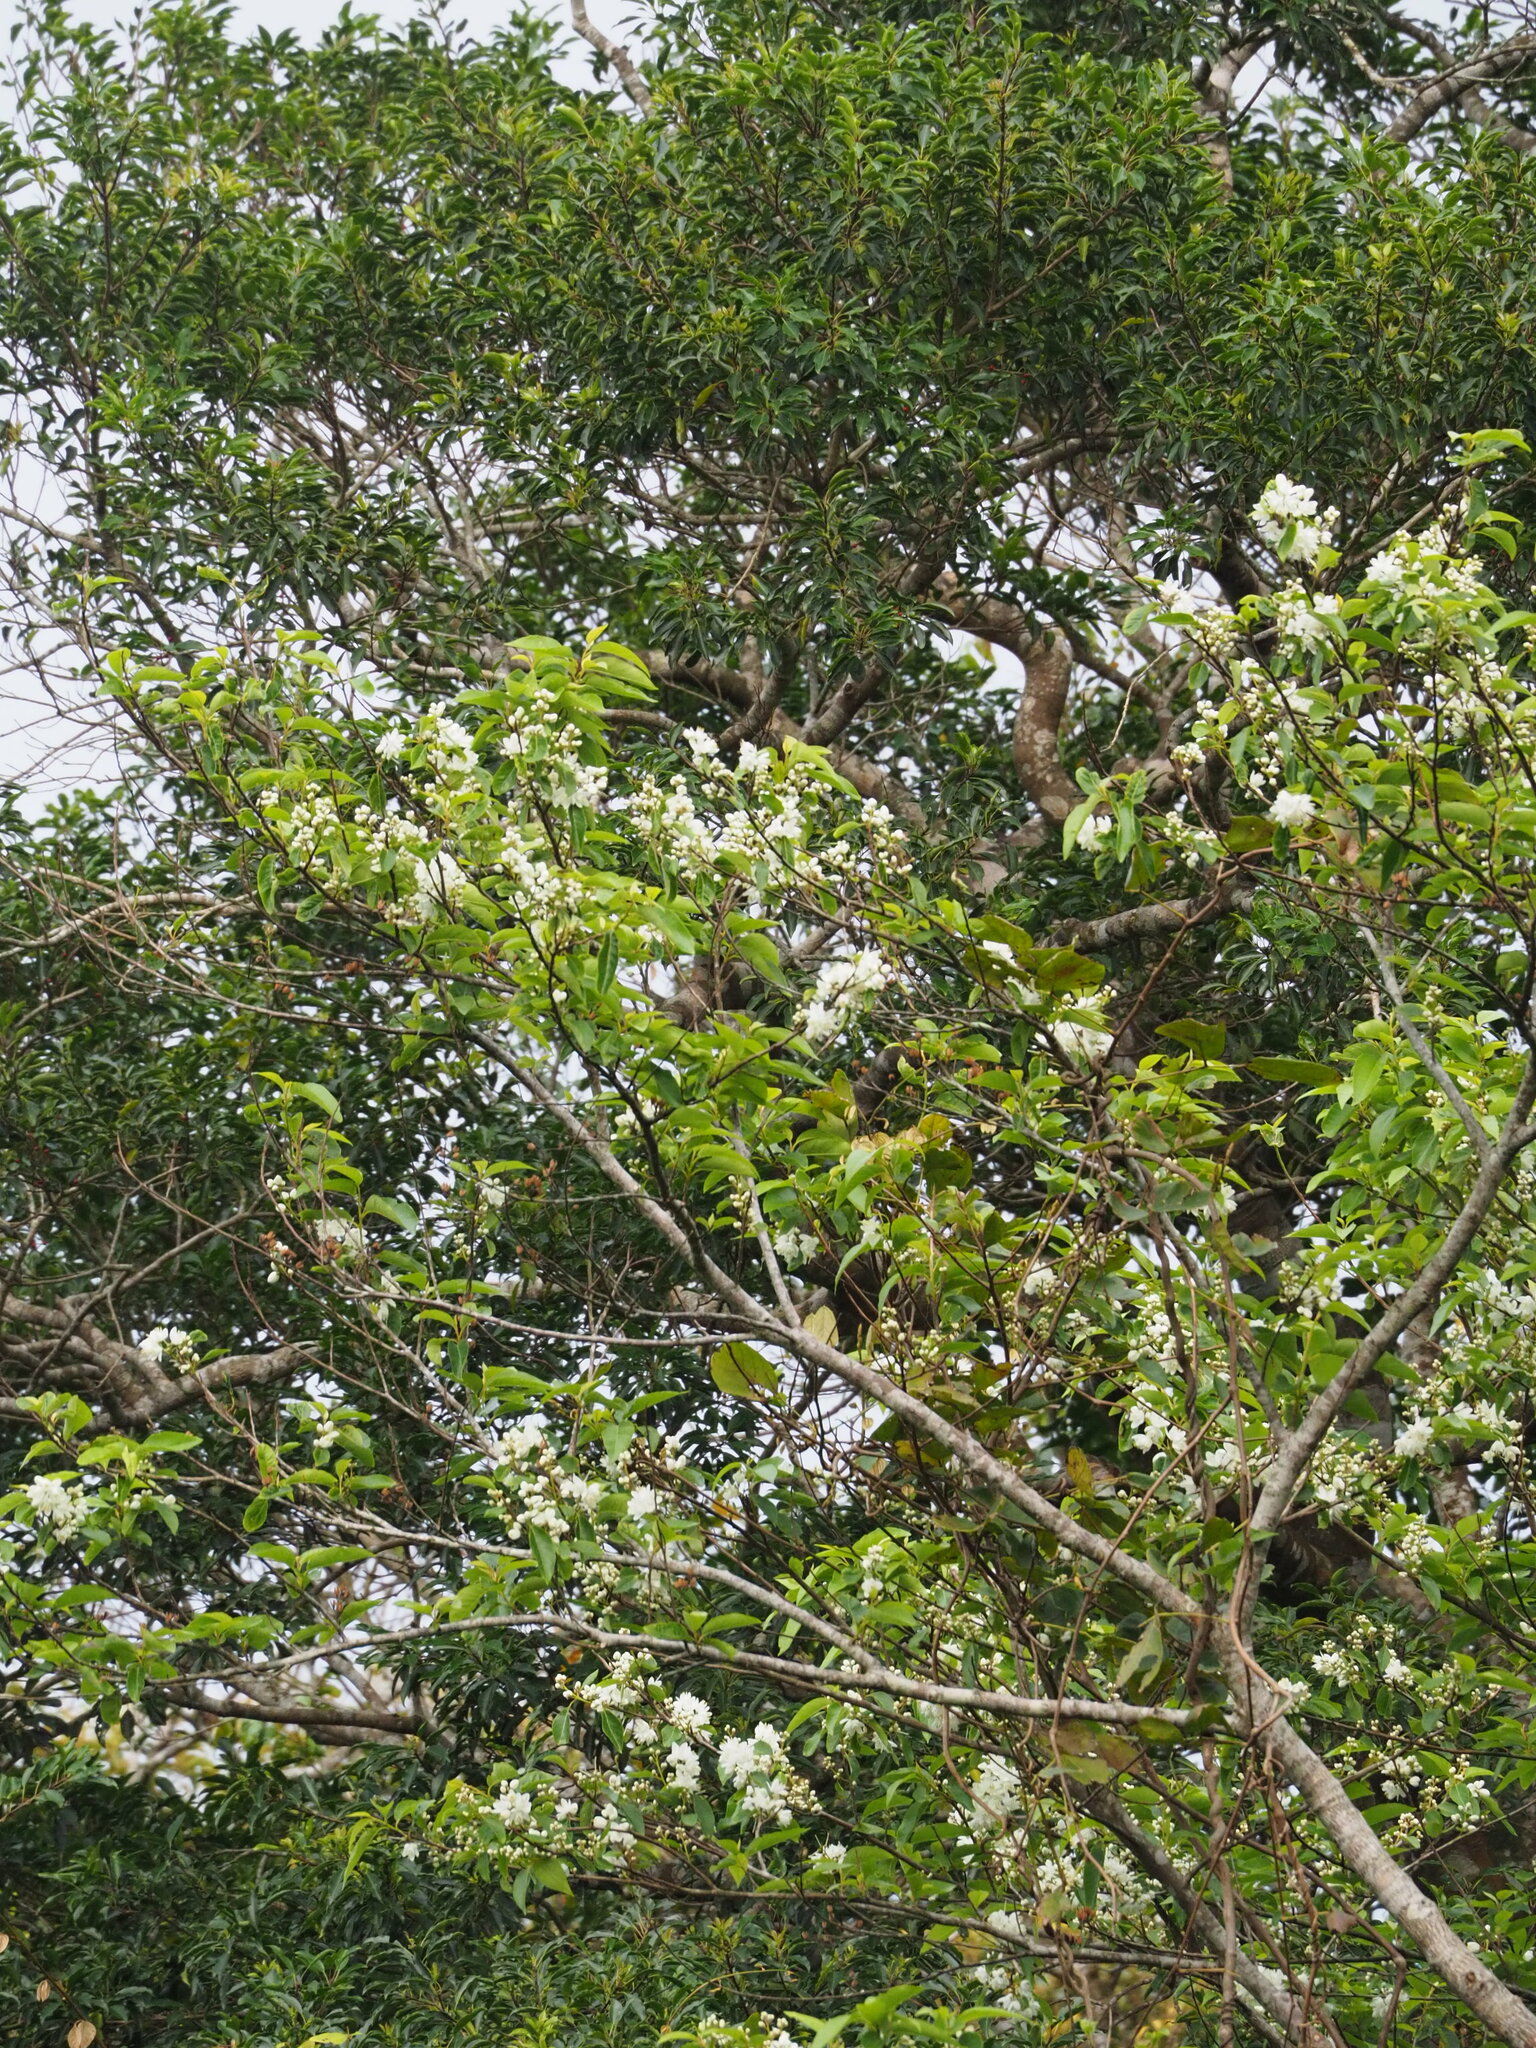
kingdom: Plantae
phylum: Tracheophyta
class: Magnoliopsida
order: Ericales
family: Styracaceae
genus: Alniphyllum
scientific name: Alniphyllum pterospermum
